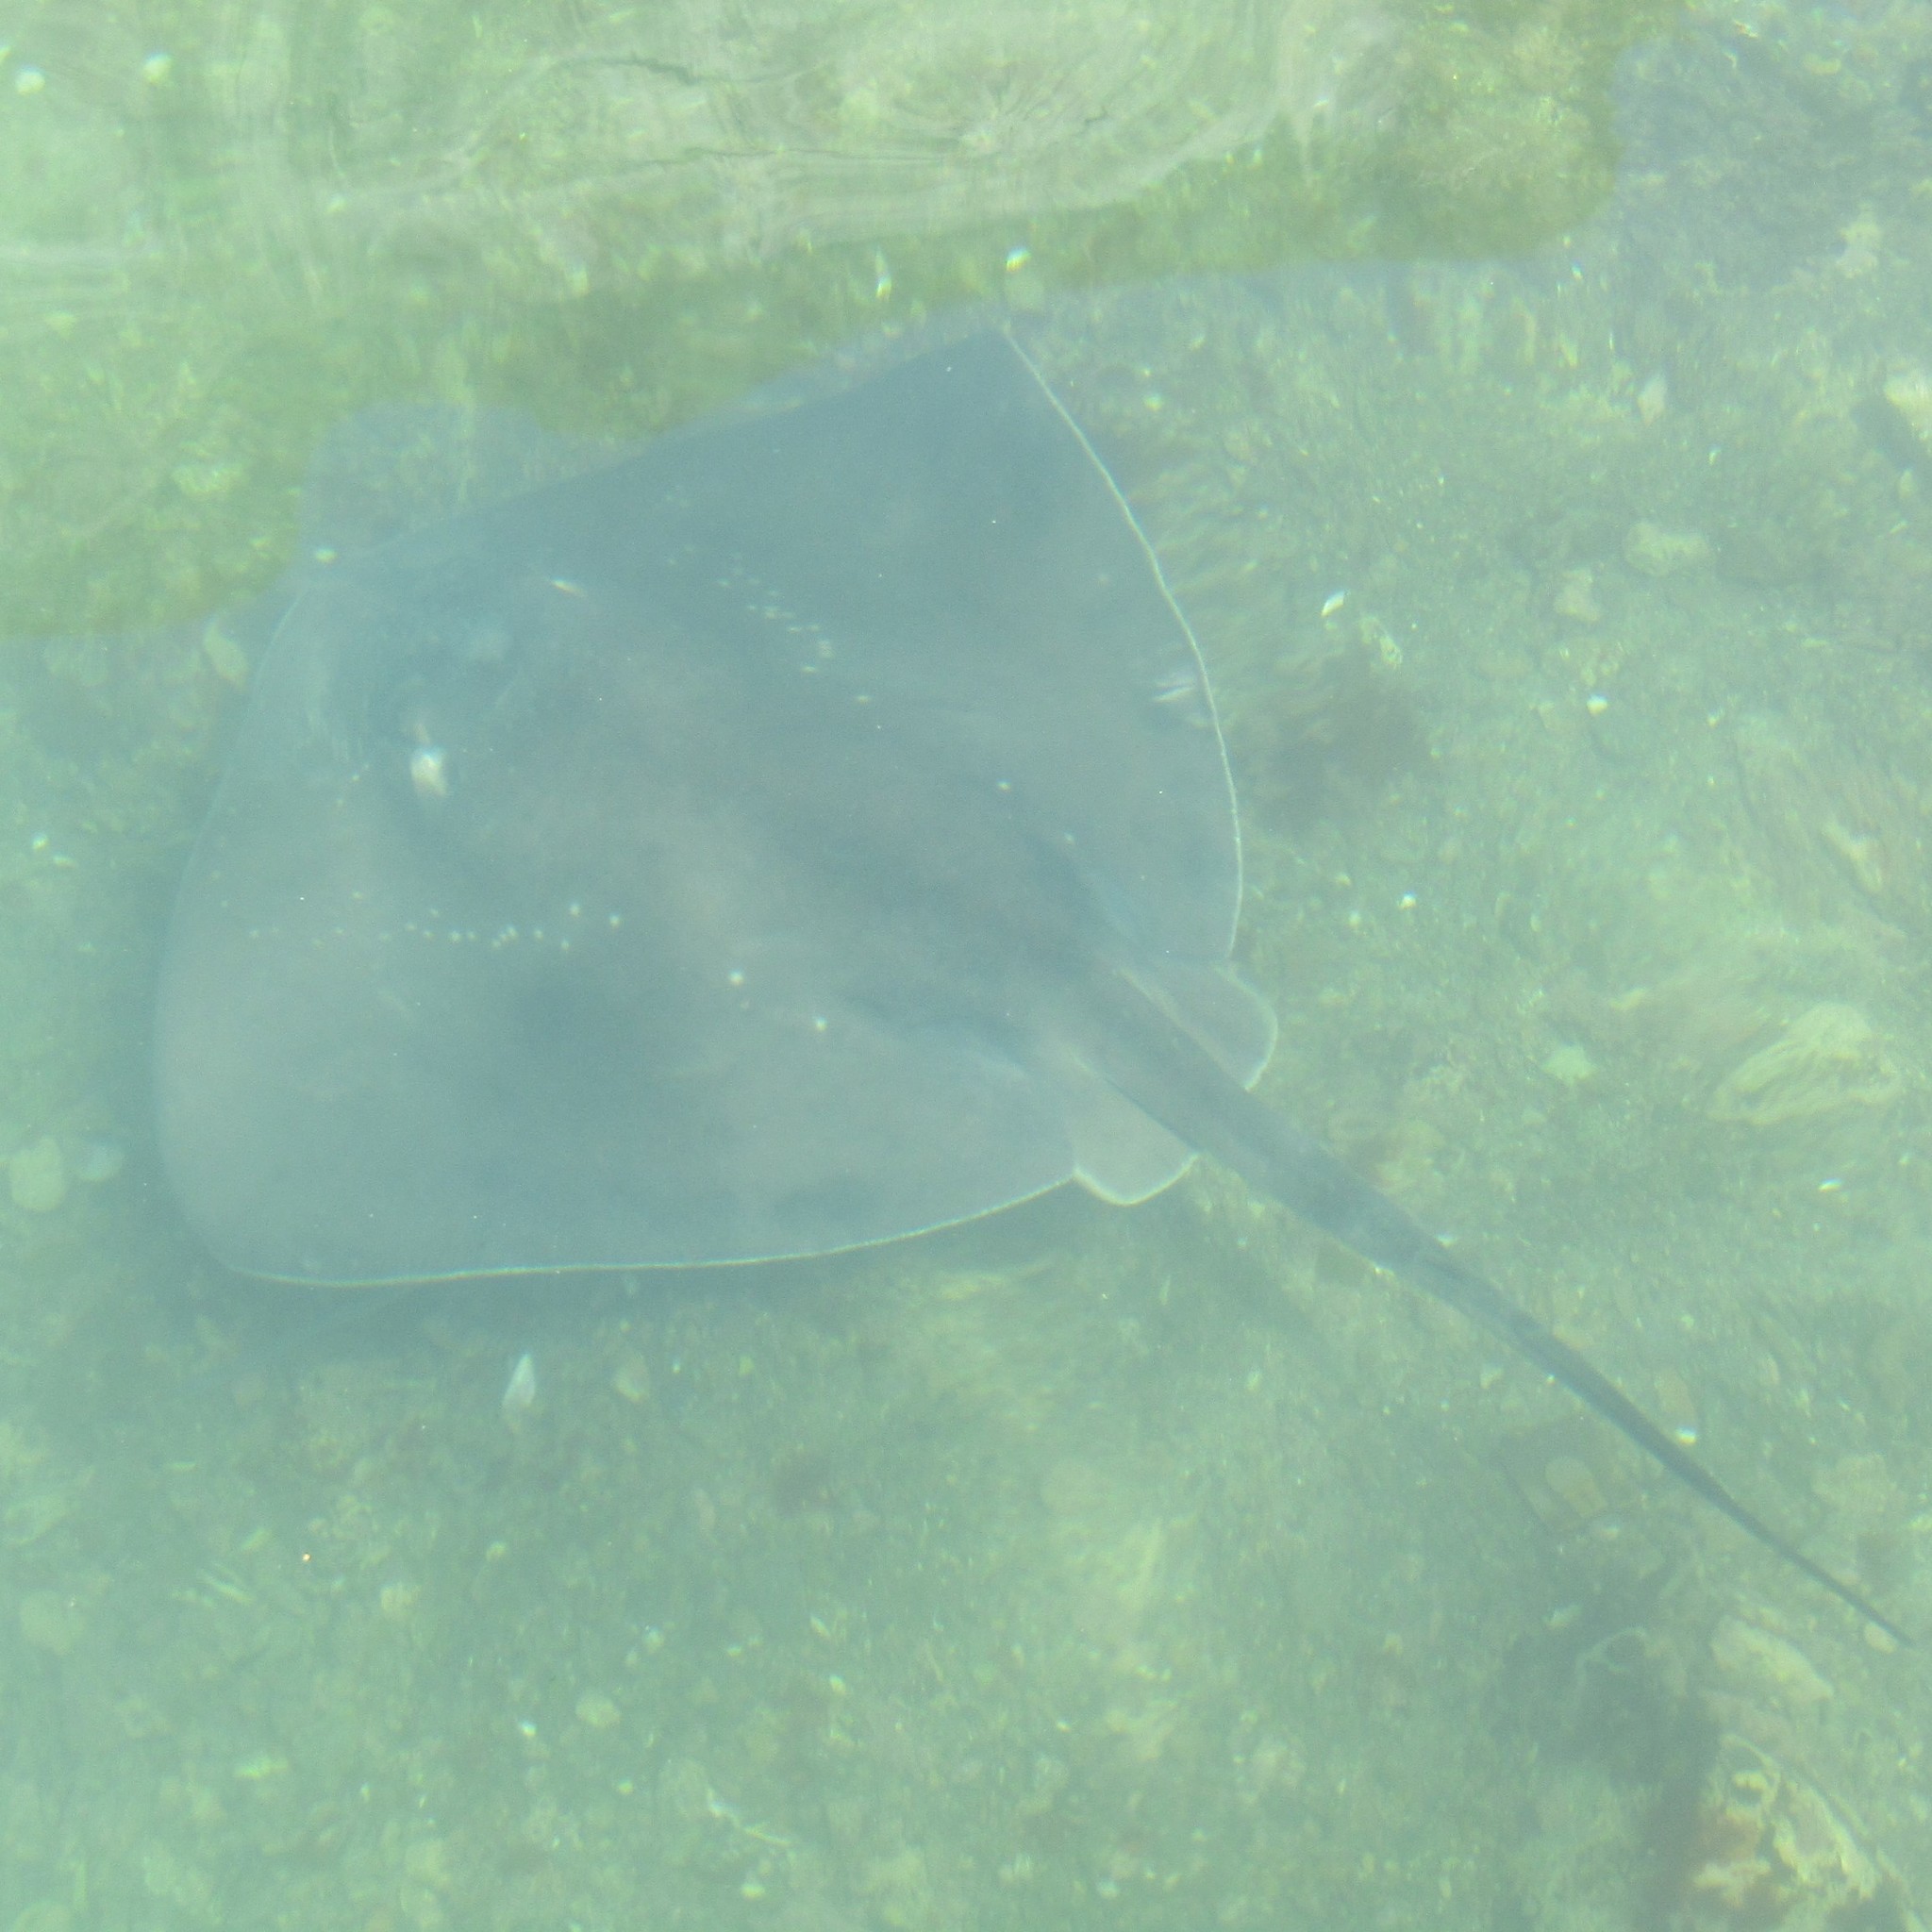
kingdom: Animalia
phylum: Chordata
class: Elasmobranchii
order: Myliobatiformes
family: Dasyatidae
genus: Bathytoshia
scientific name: Bathytoshia brevicaudata
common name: Short-tail stingray
